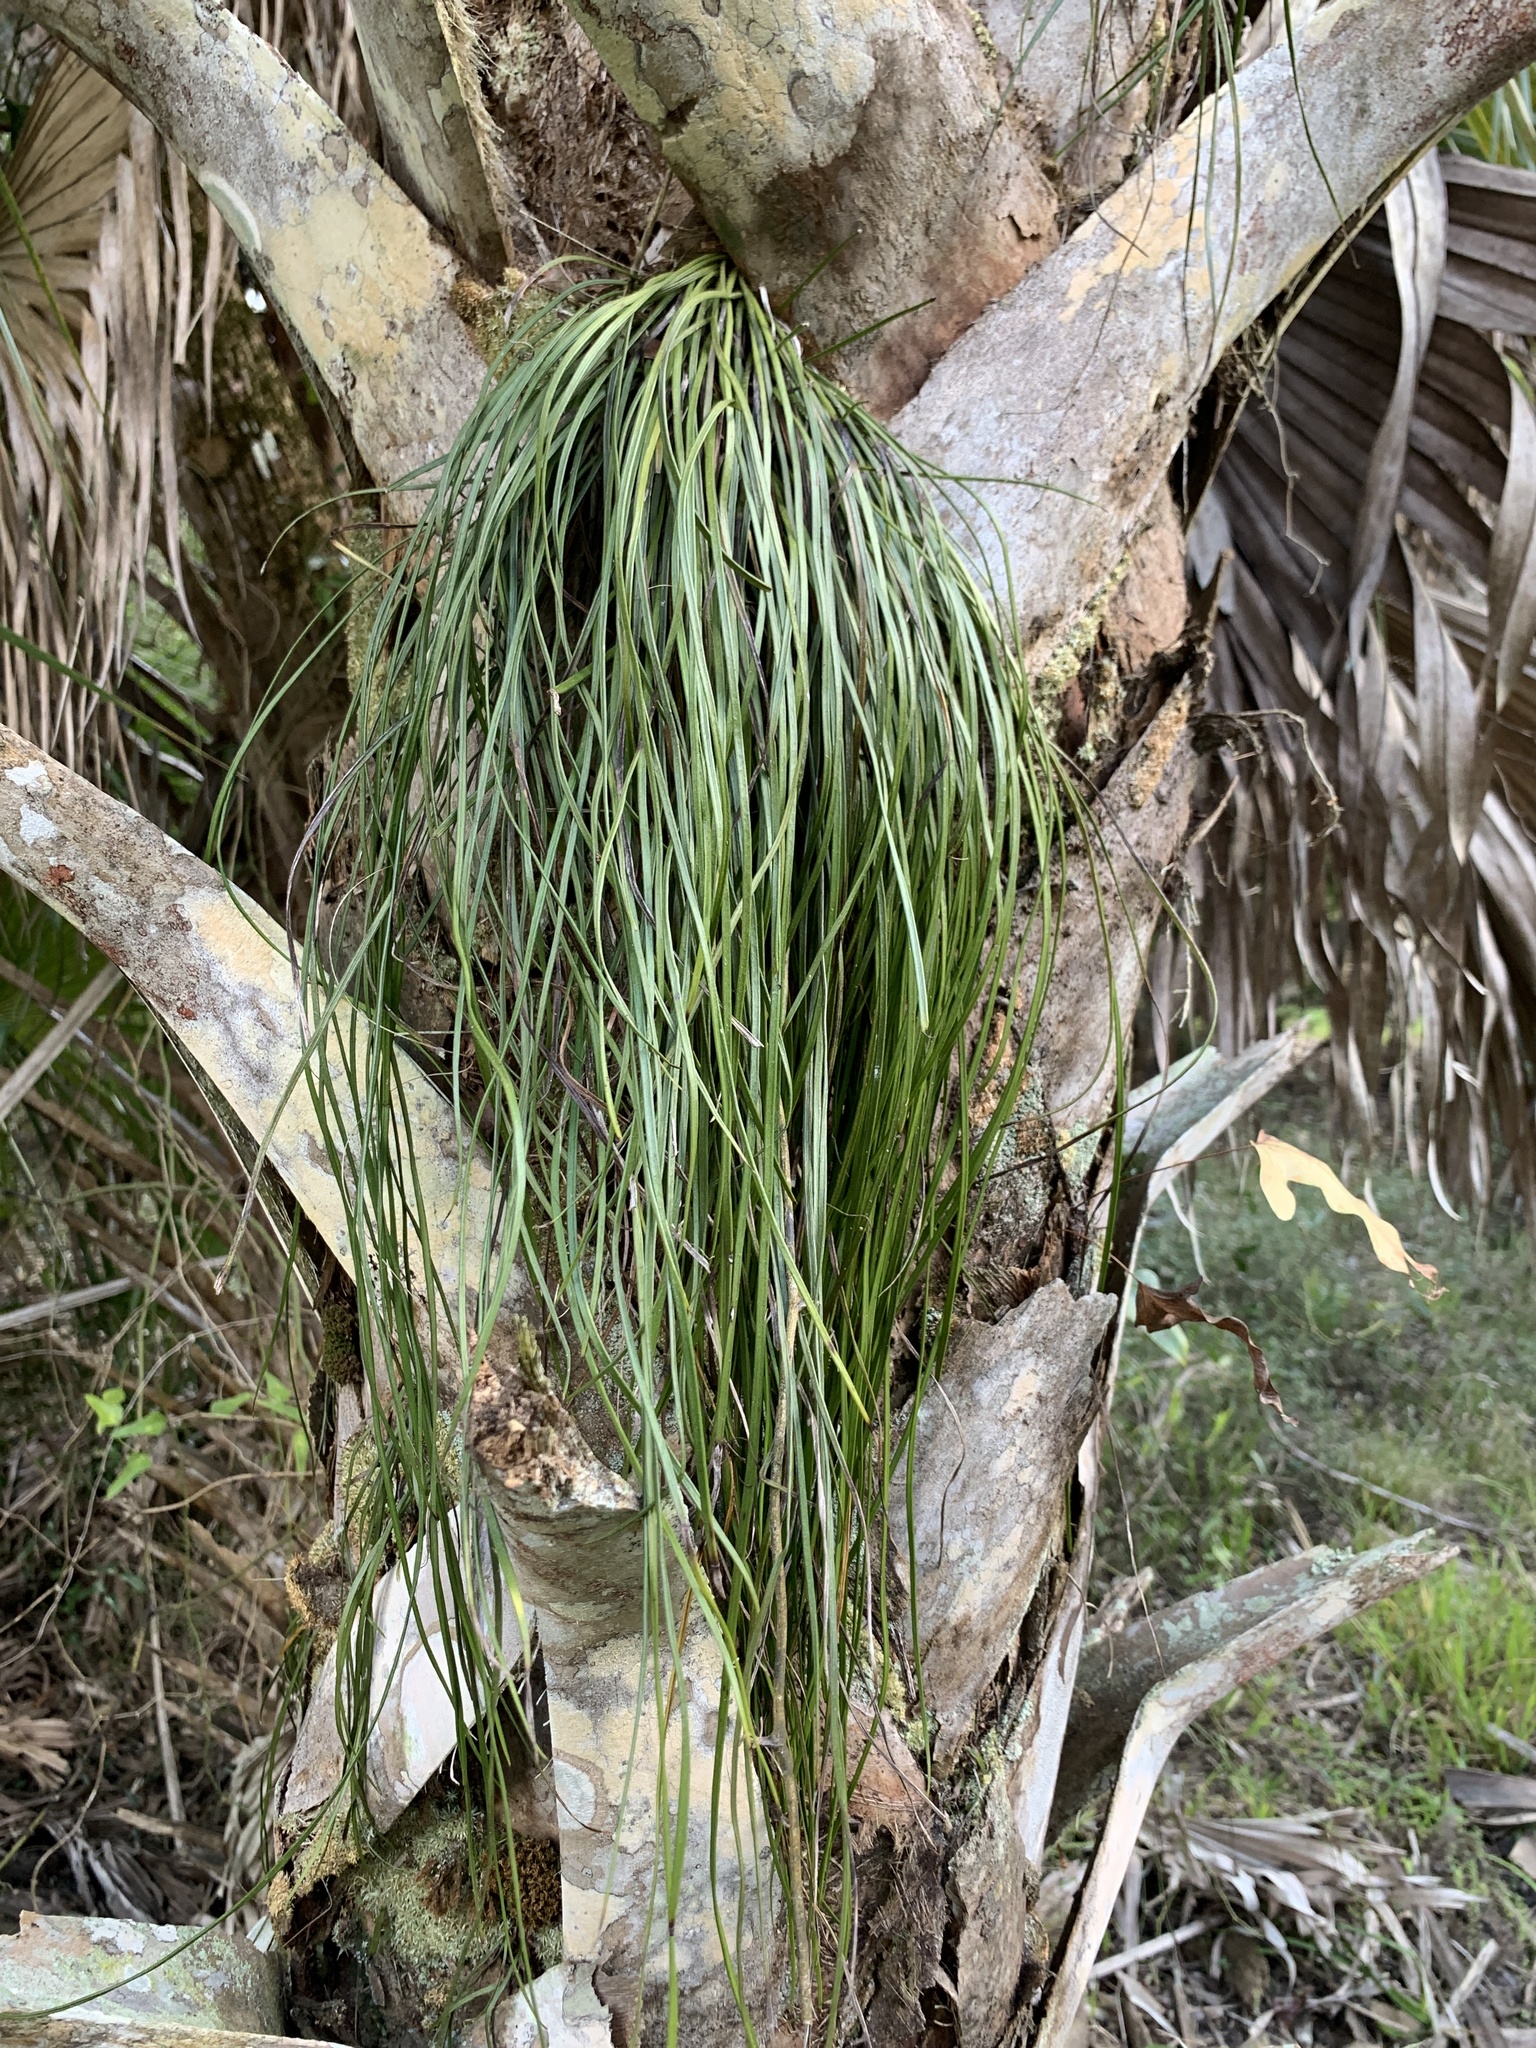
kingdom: Plantae
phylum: Tracheophyta
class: Polypodiopsida
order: Polypodiales
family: Pteridaceae
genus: Vittaria
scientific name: Vittaria lineata
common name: Shoestring fern
